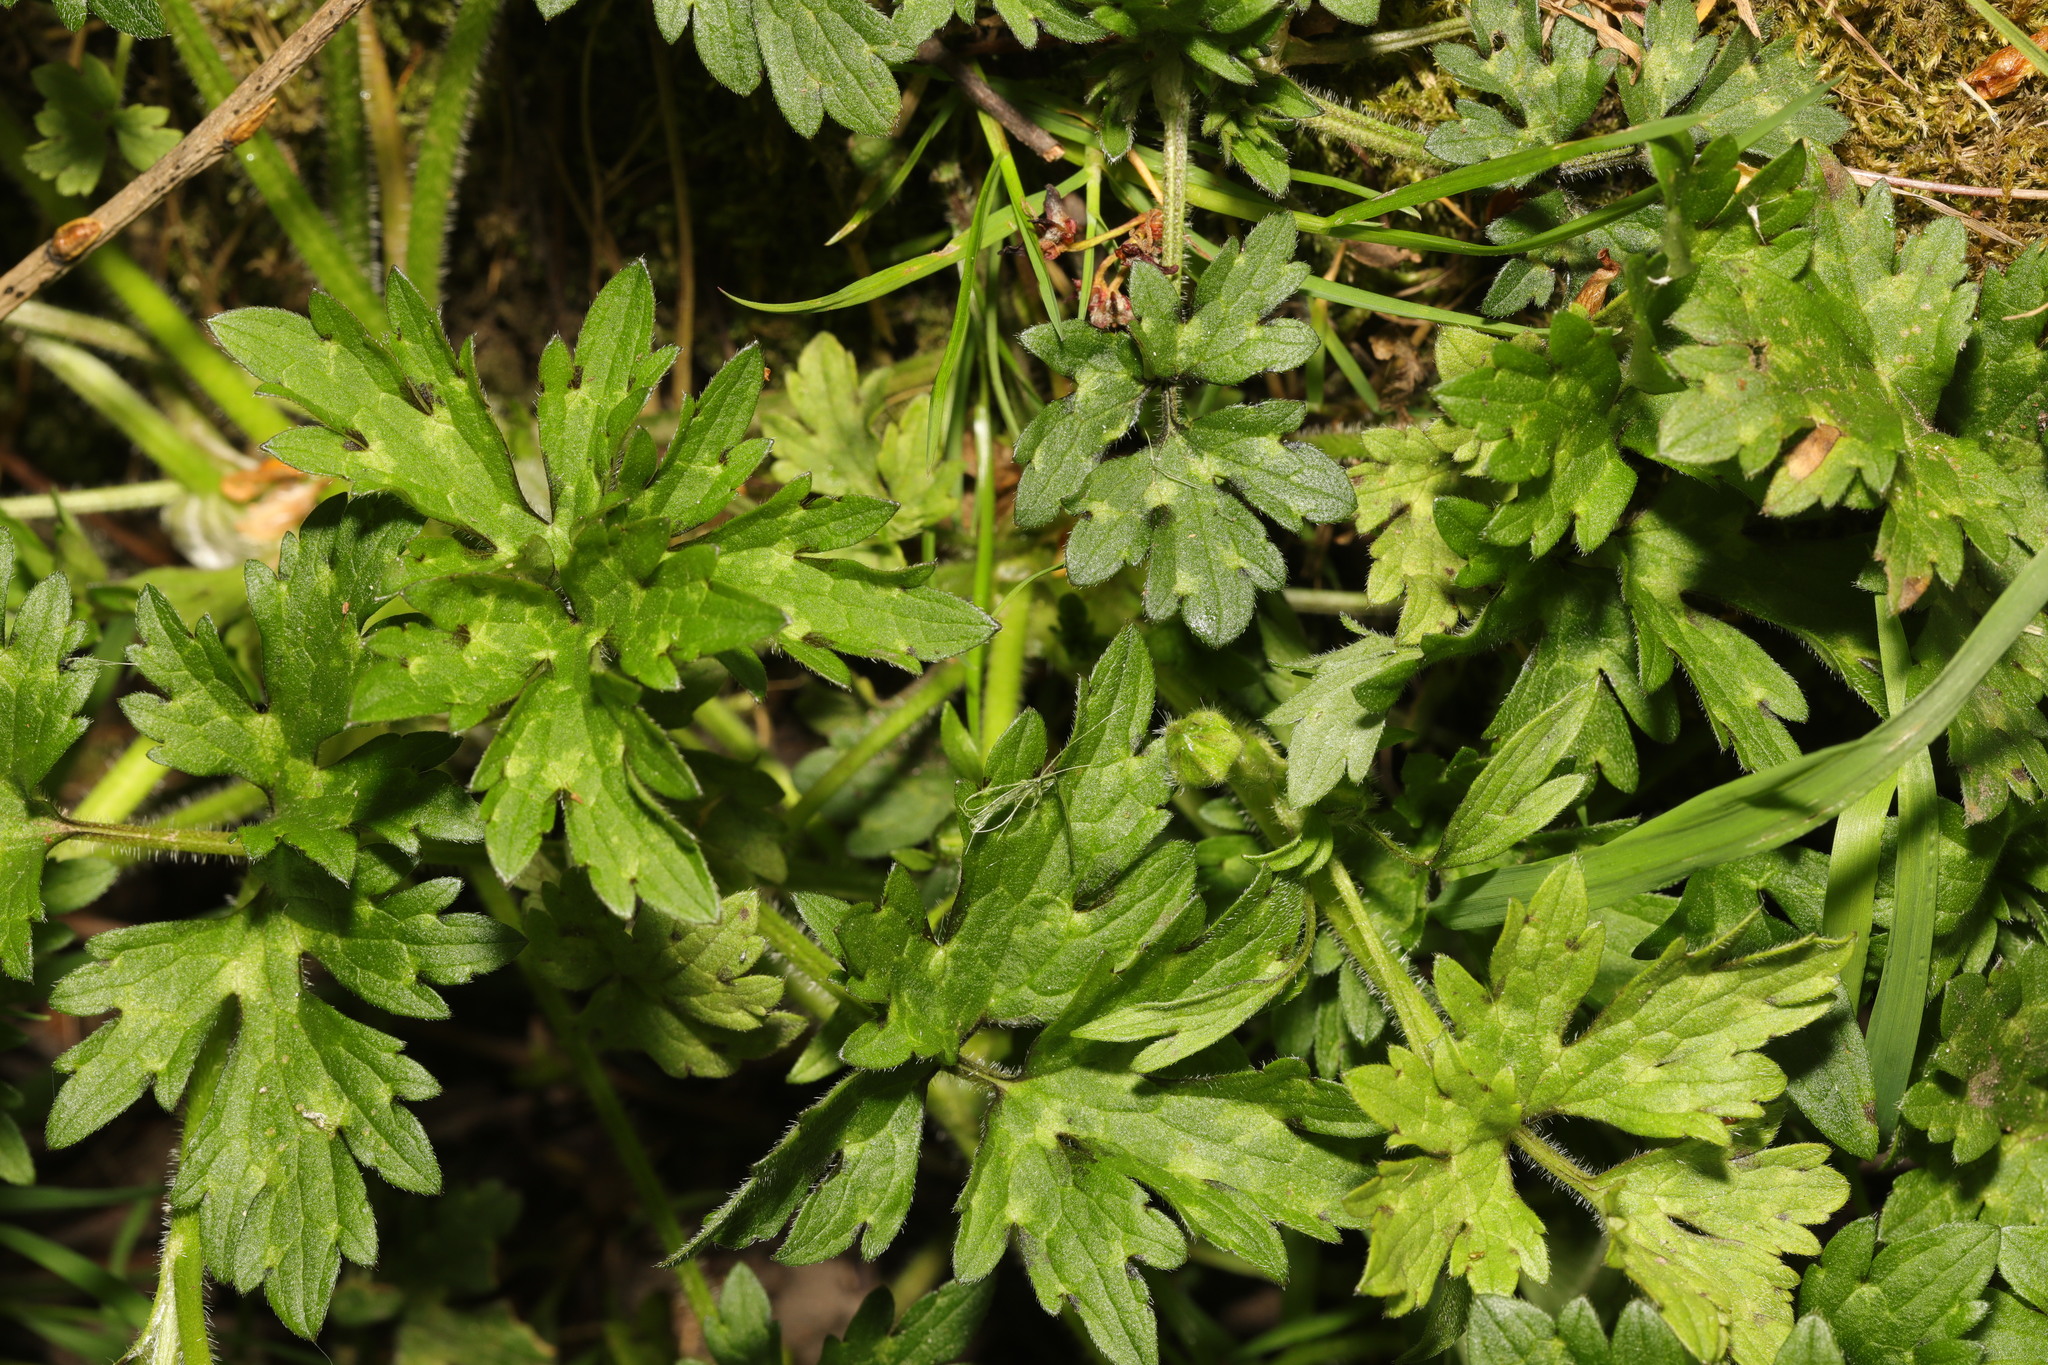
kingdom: Plantae
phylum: Tracheophyta
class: Magnoliopsida
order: Ranunculales
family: Ranunculaceae
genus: Ranunculus
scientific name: Ranunculus repens
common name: Creeping buttercup
